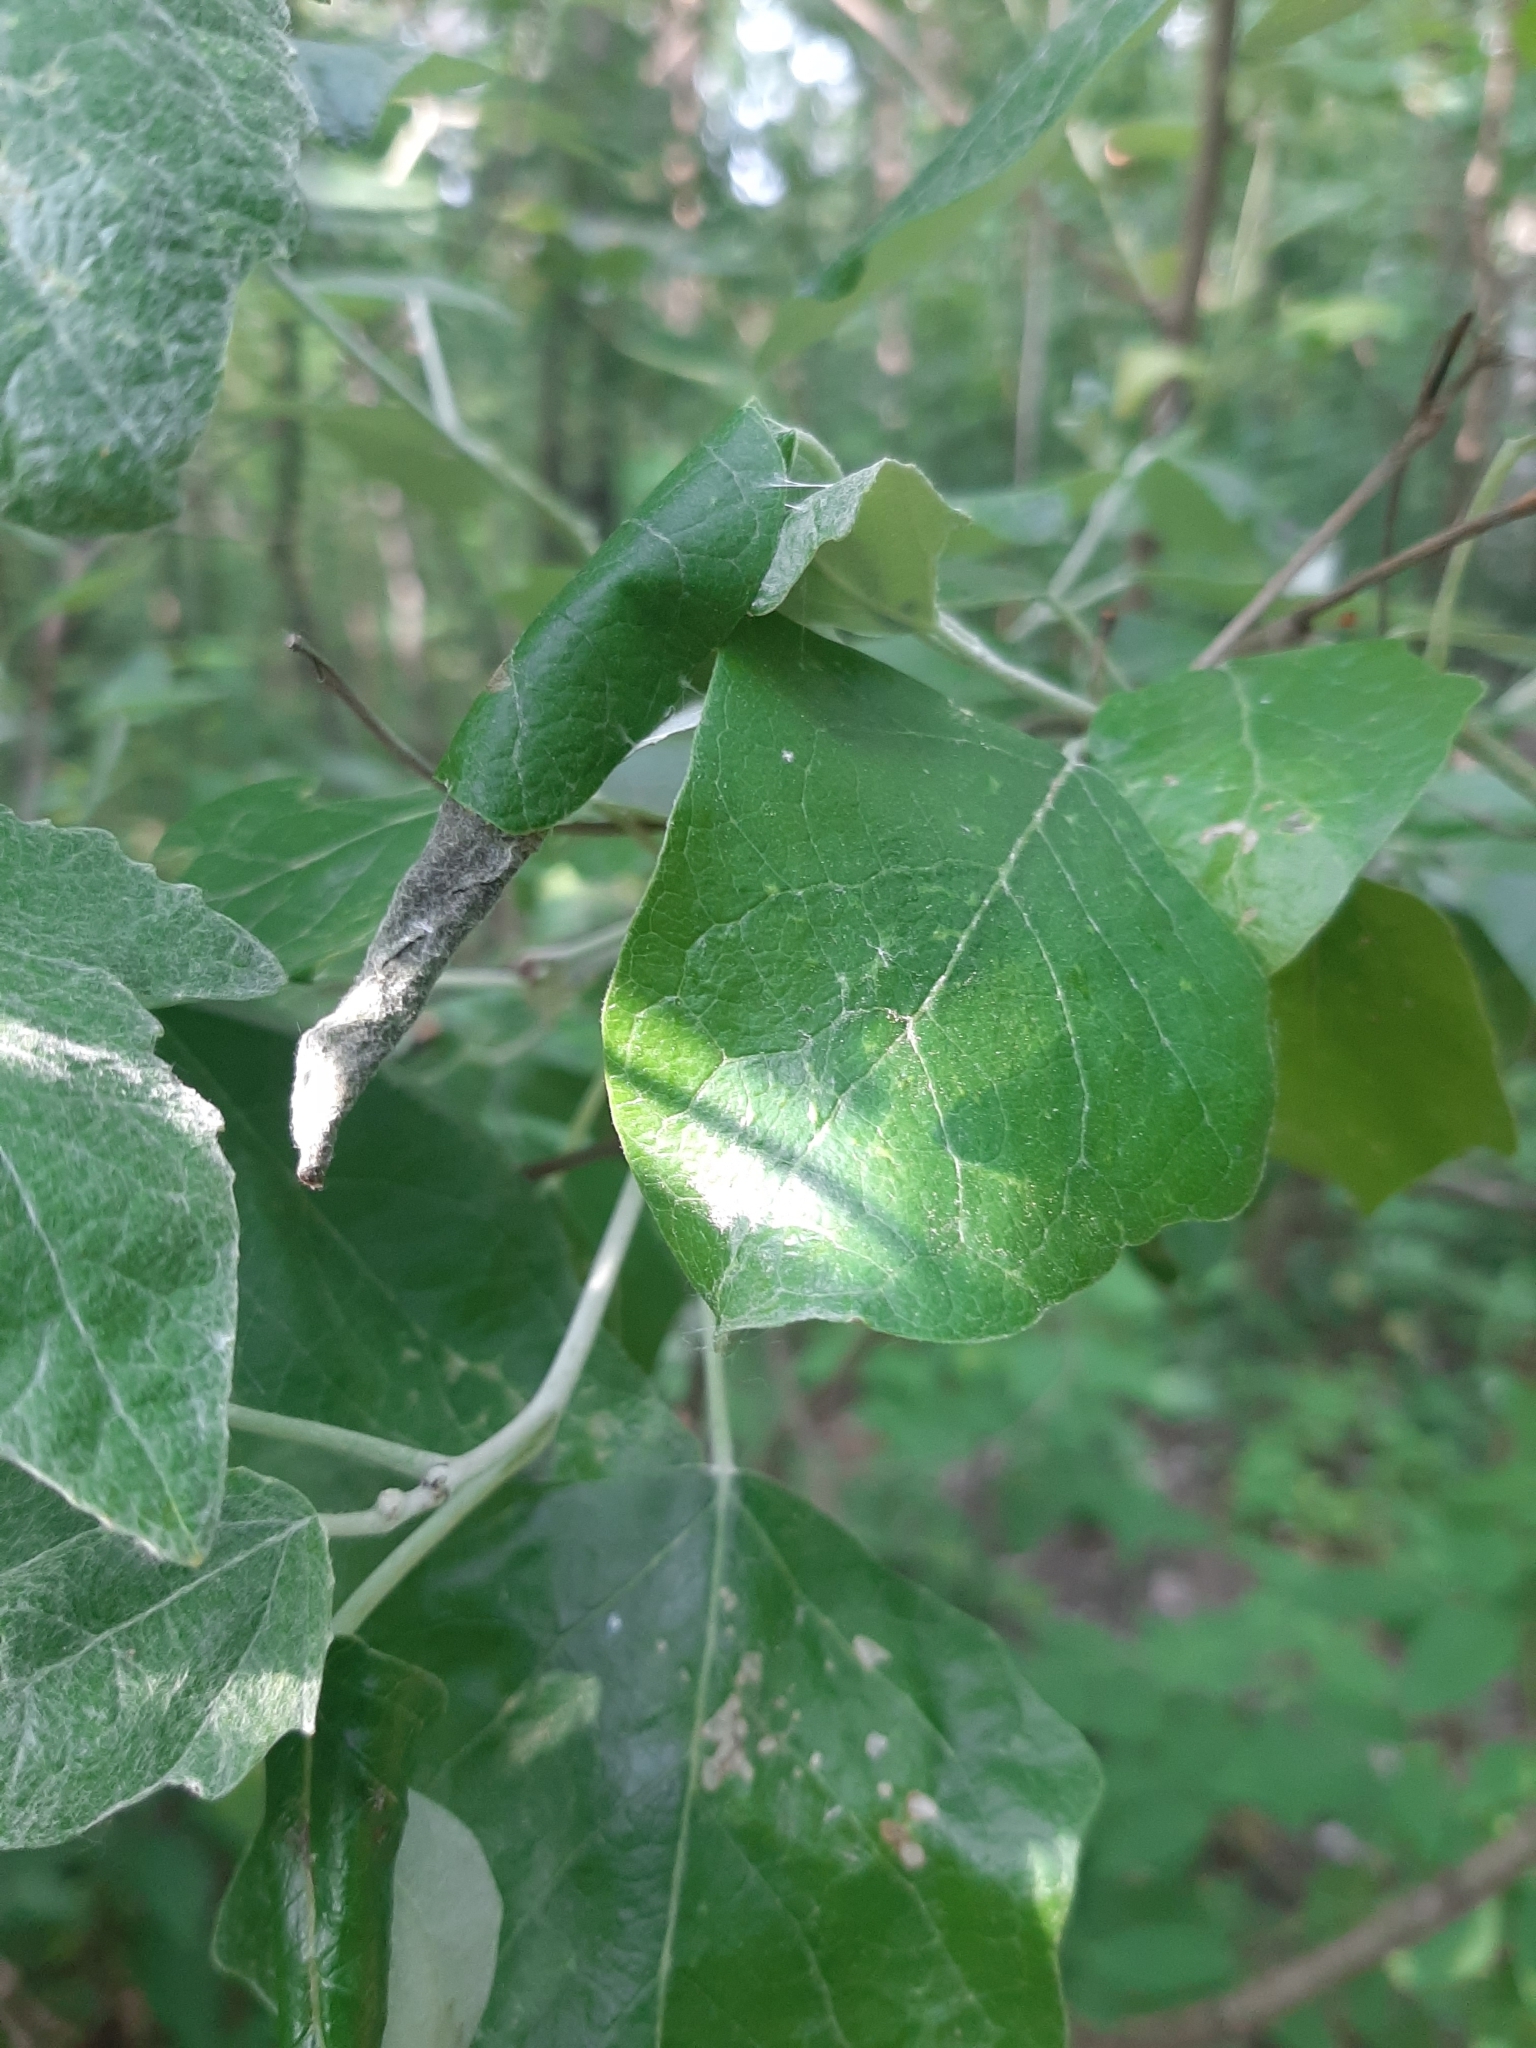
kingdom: Plantae
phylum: Tracheophyta
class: Magnoliopsida
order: Malpighiales
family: Salicaceae
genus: Populus
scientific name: Populus alba
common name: White poplar
